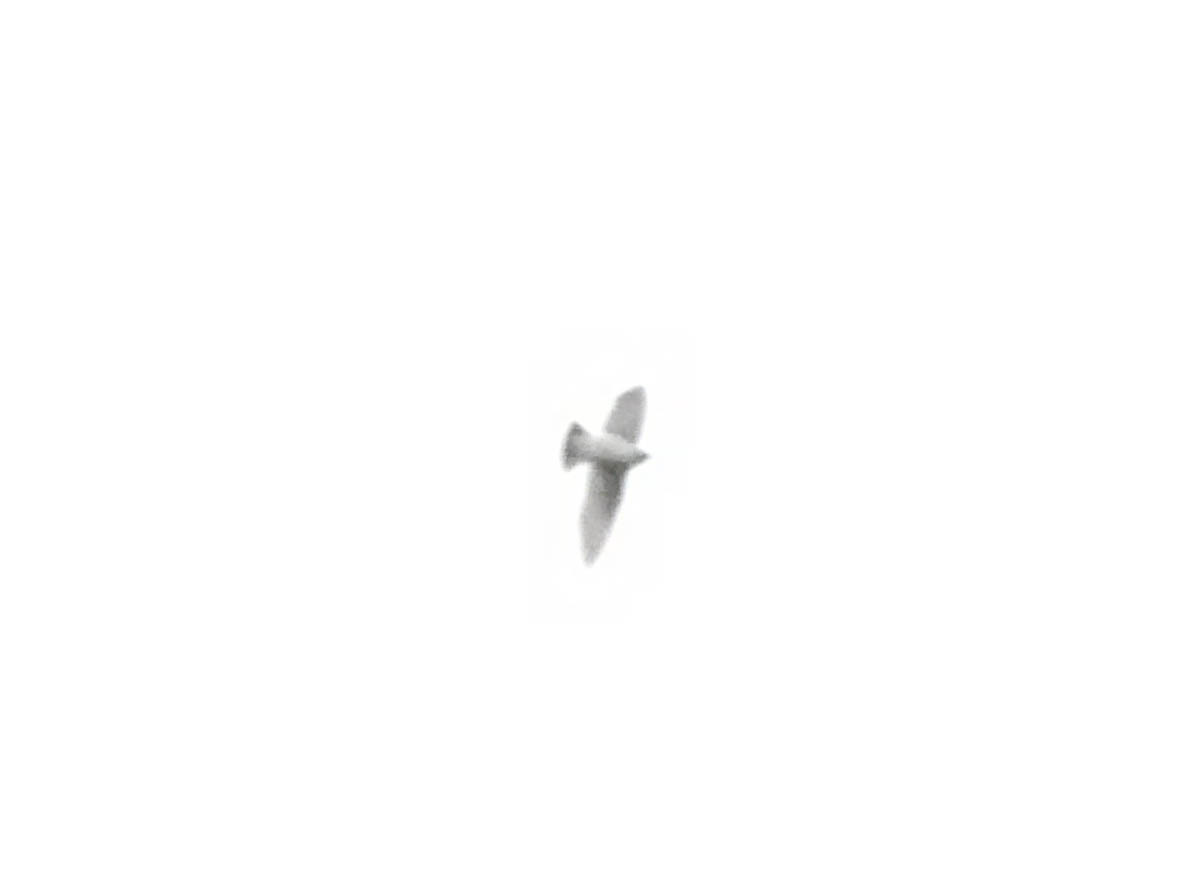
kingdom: Animalia
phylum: Chordata
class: Aves
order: Passeriformes
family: Hirundinidae
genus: Tachycineta
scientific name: Tachycineta bicolor
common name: Tree swallow
